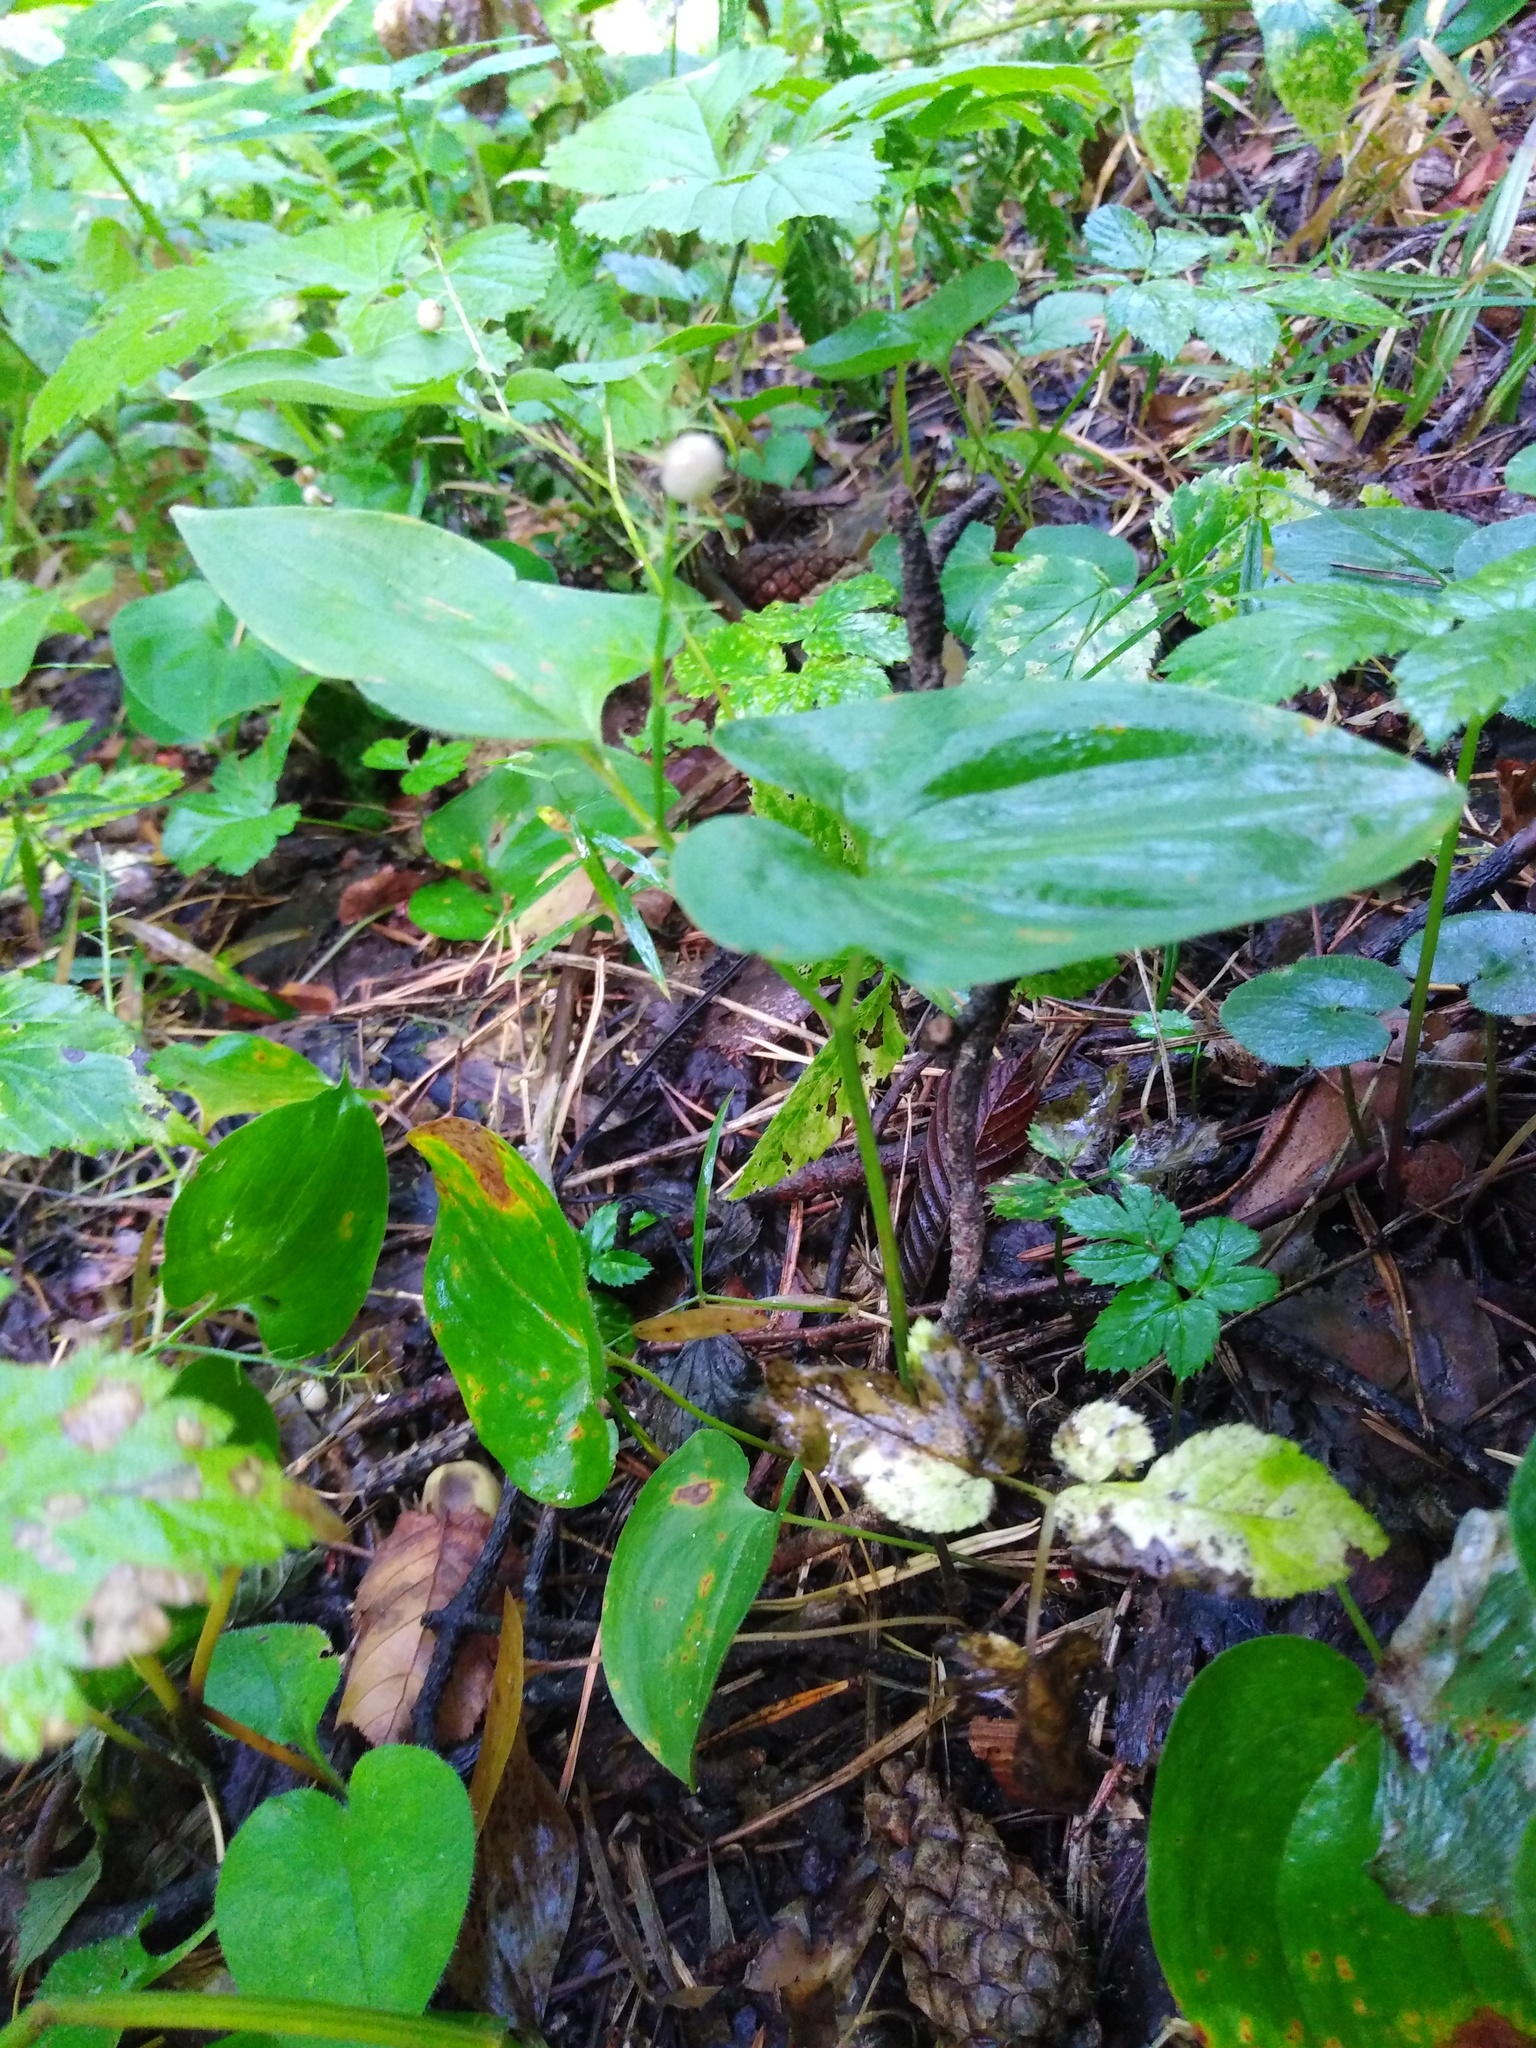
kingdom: Plantae
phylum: Tracheophyta
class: Liliopsida
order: Asparagales
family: Asparagaceae
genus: Maianthemum
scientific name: Maianthemum bifolium
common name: May lily
